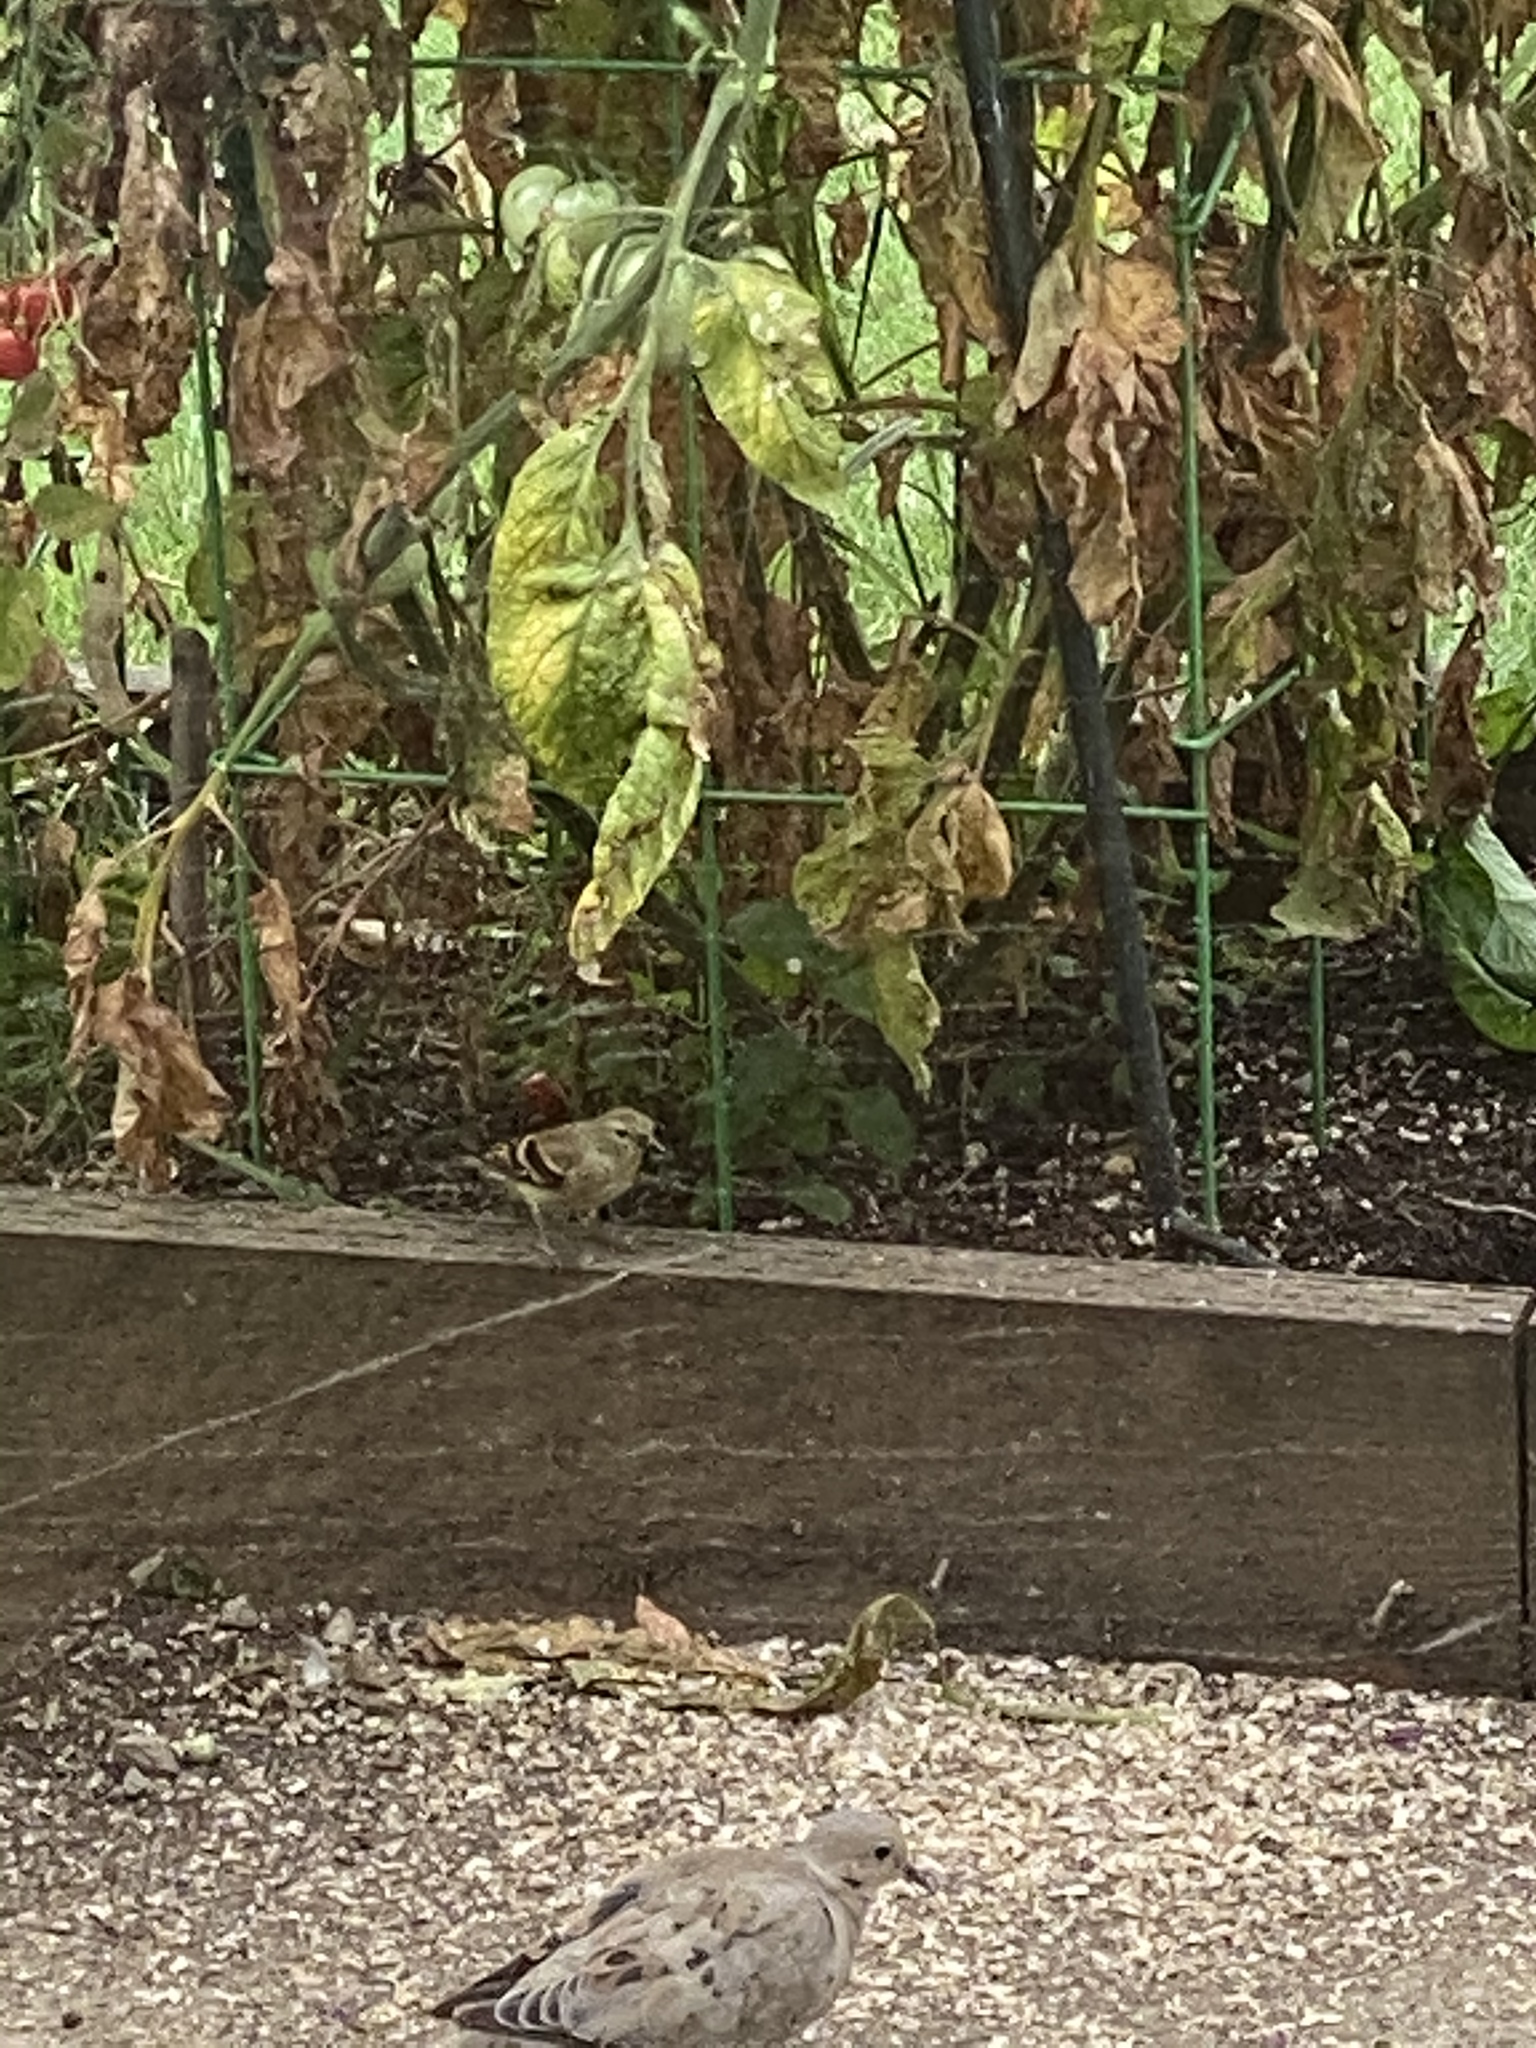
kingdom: Animalia
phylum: Chordata
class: Aves
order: Passeriformes
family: Fringillidae
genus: Spinus
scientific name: Spinus tristis
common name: American goldfinch
